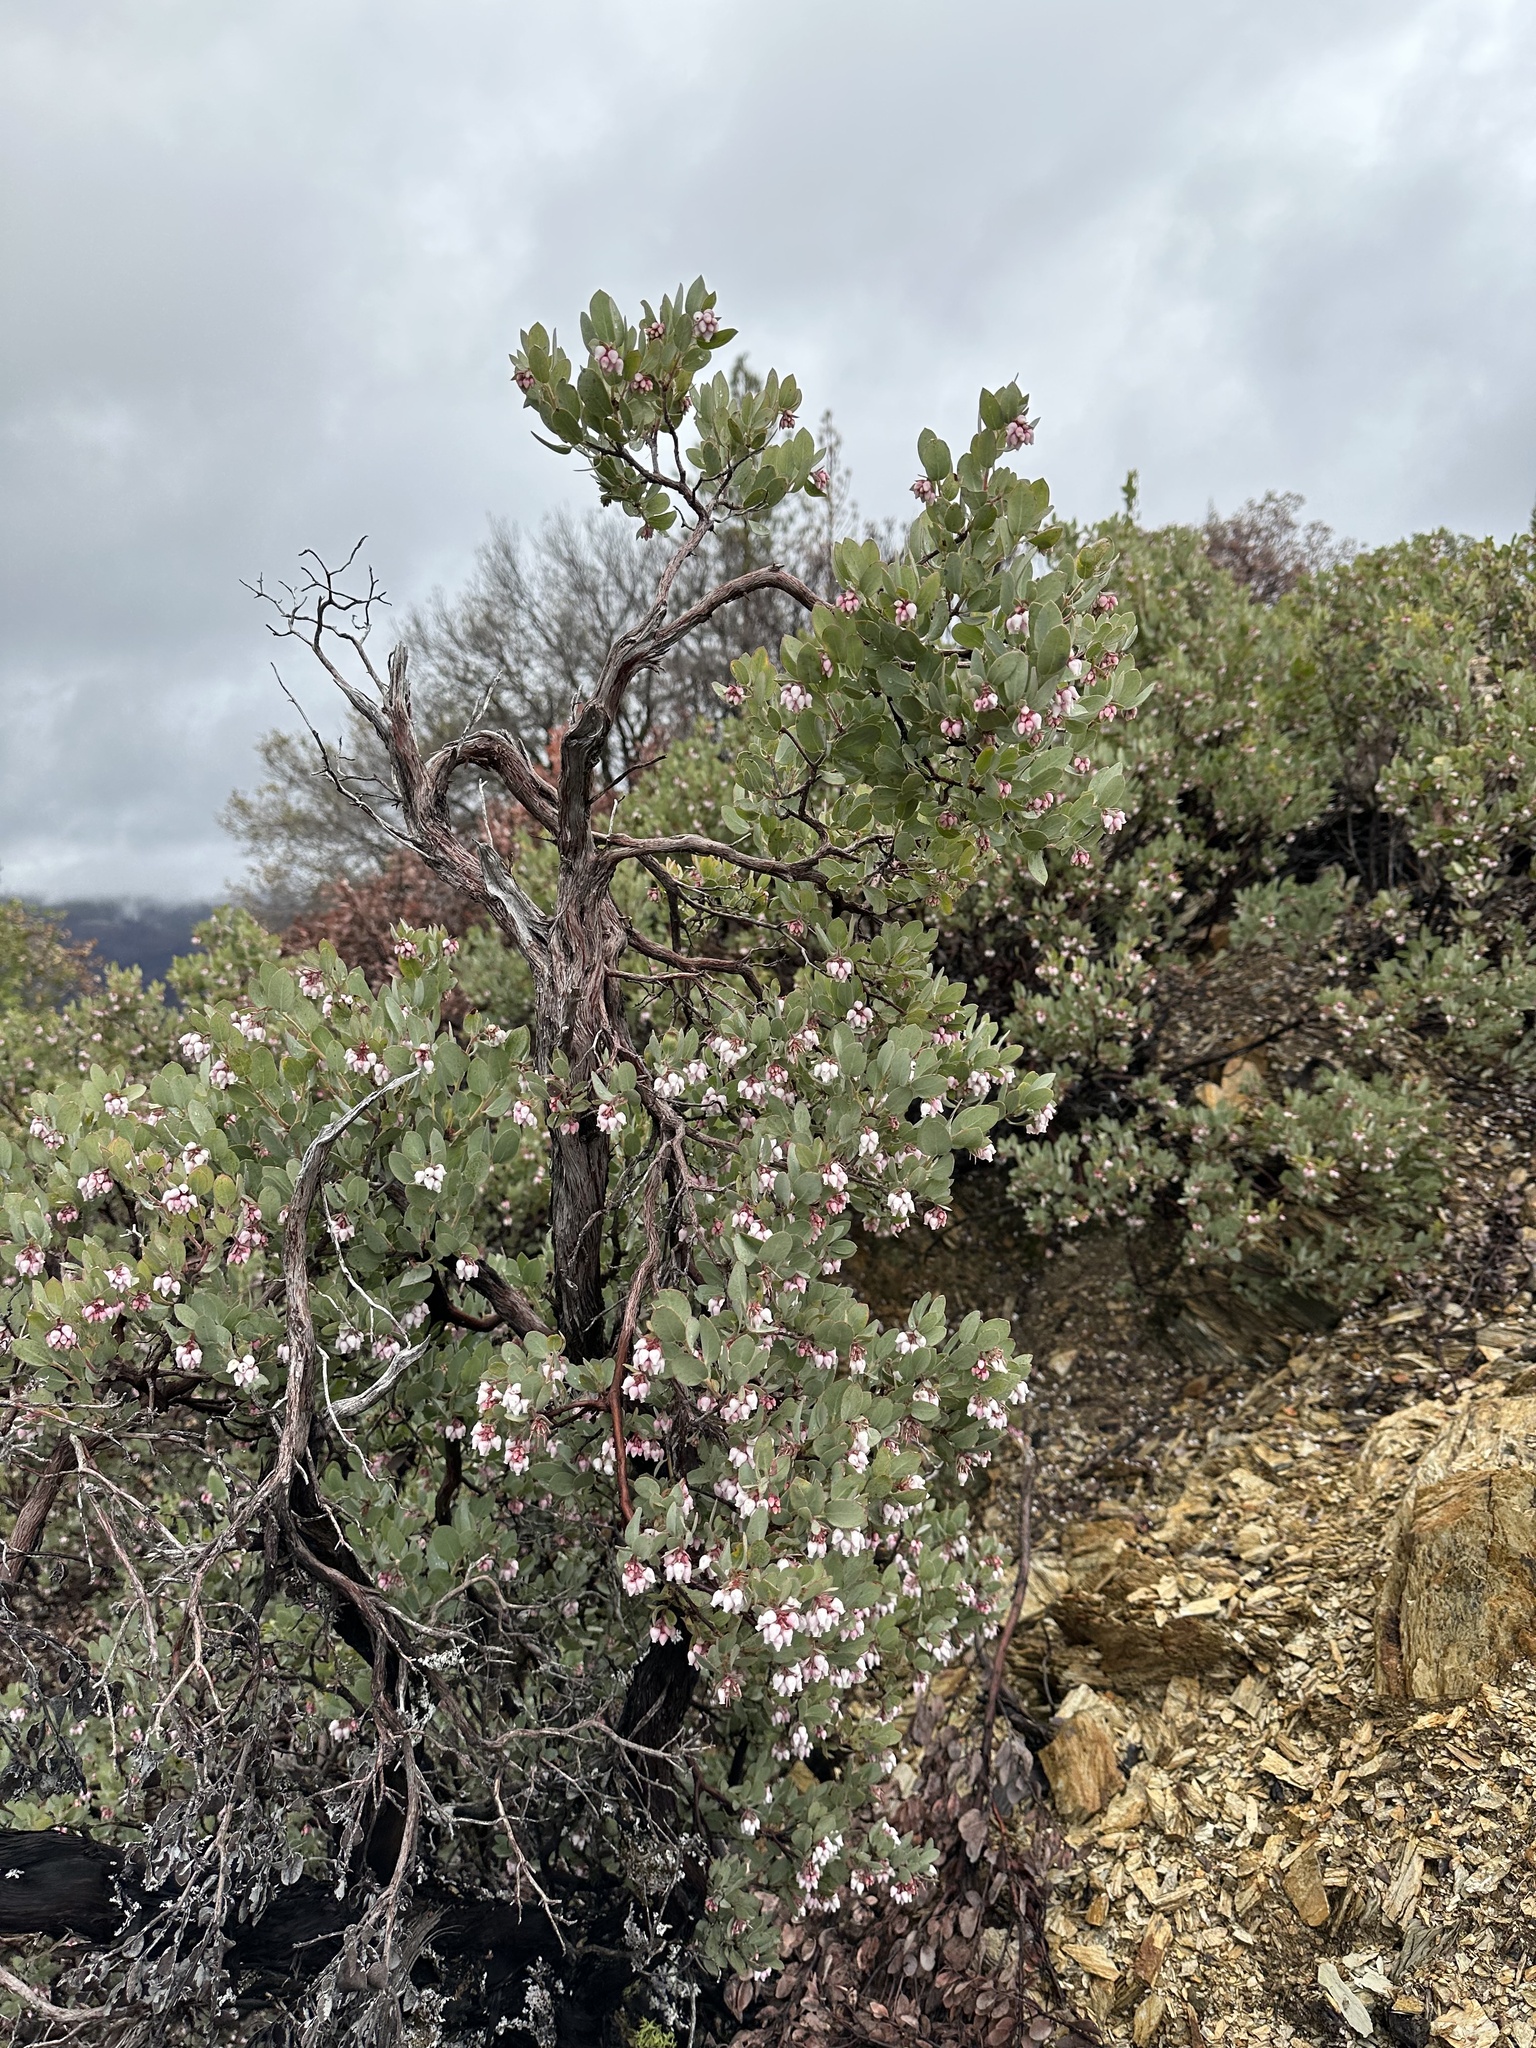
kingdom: Plantae
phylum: Tracheophyta
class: Magnoliopsida
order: Ericales
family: Ericaceae
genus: Arctostaphylos
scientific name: Arctostaphylos nissenana
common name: Nissenan manzanita
